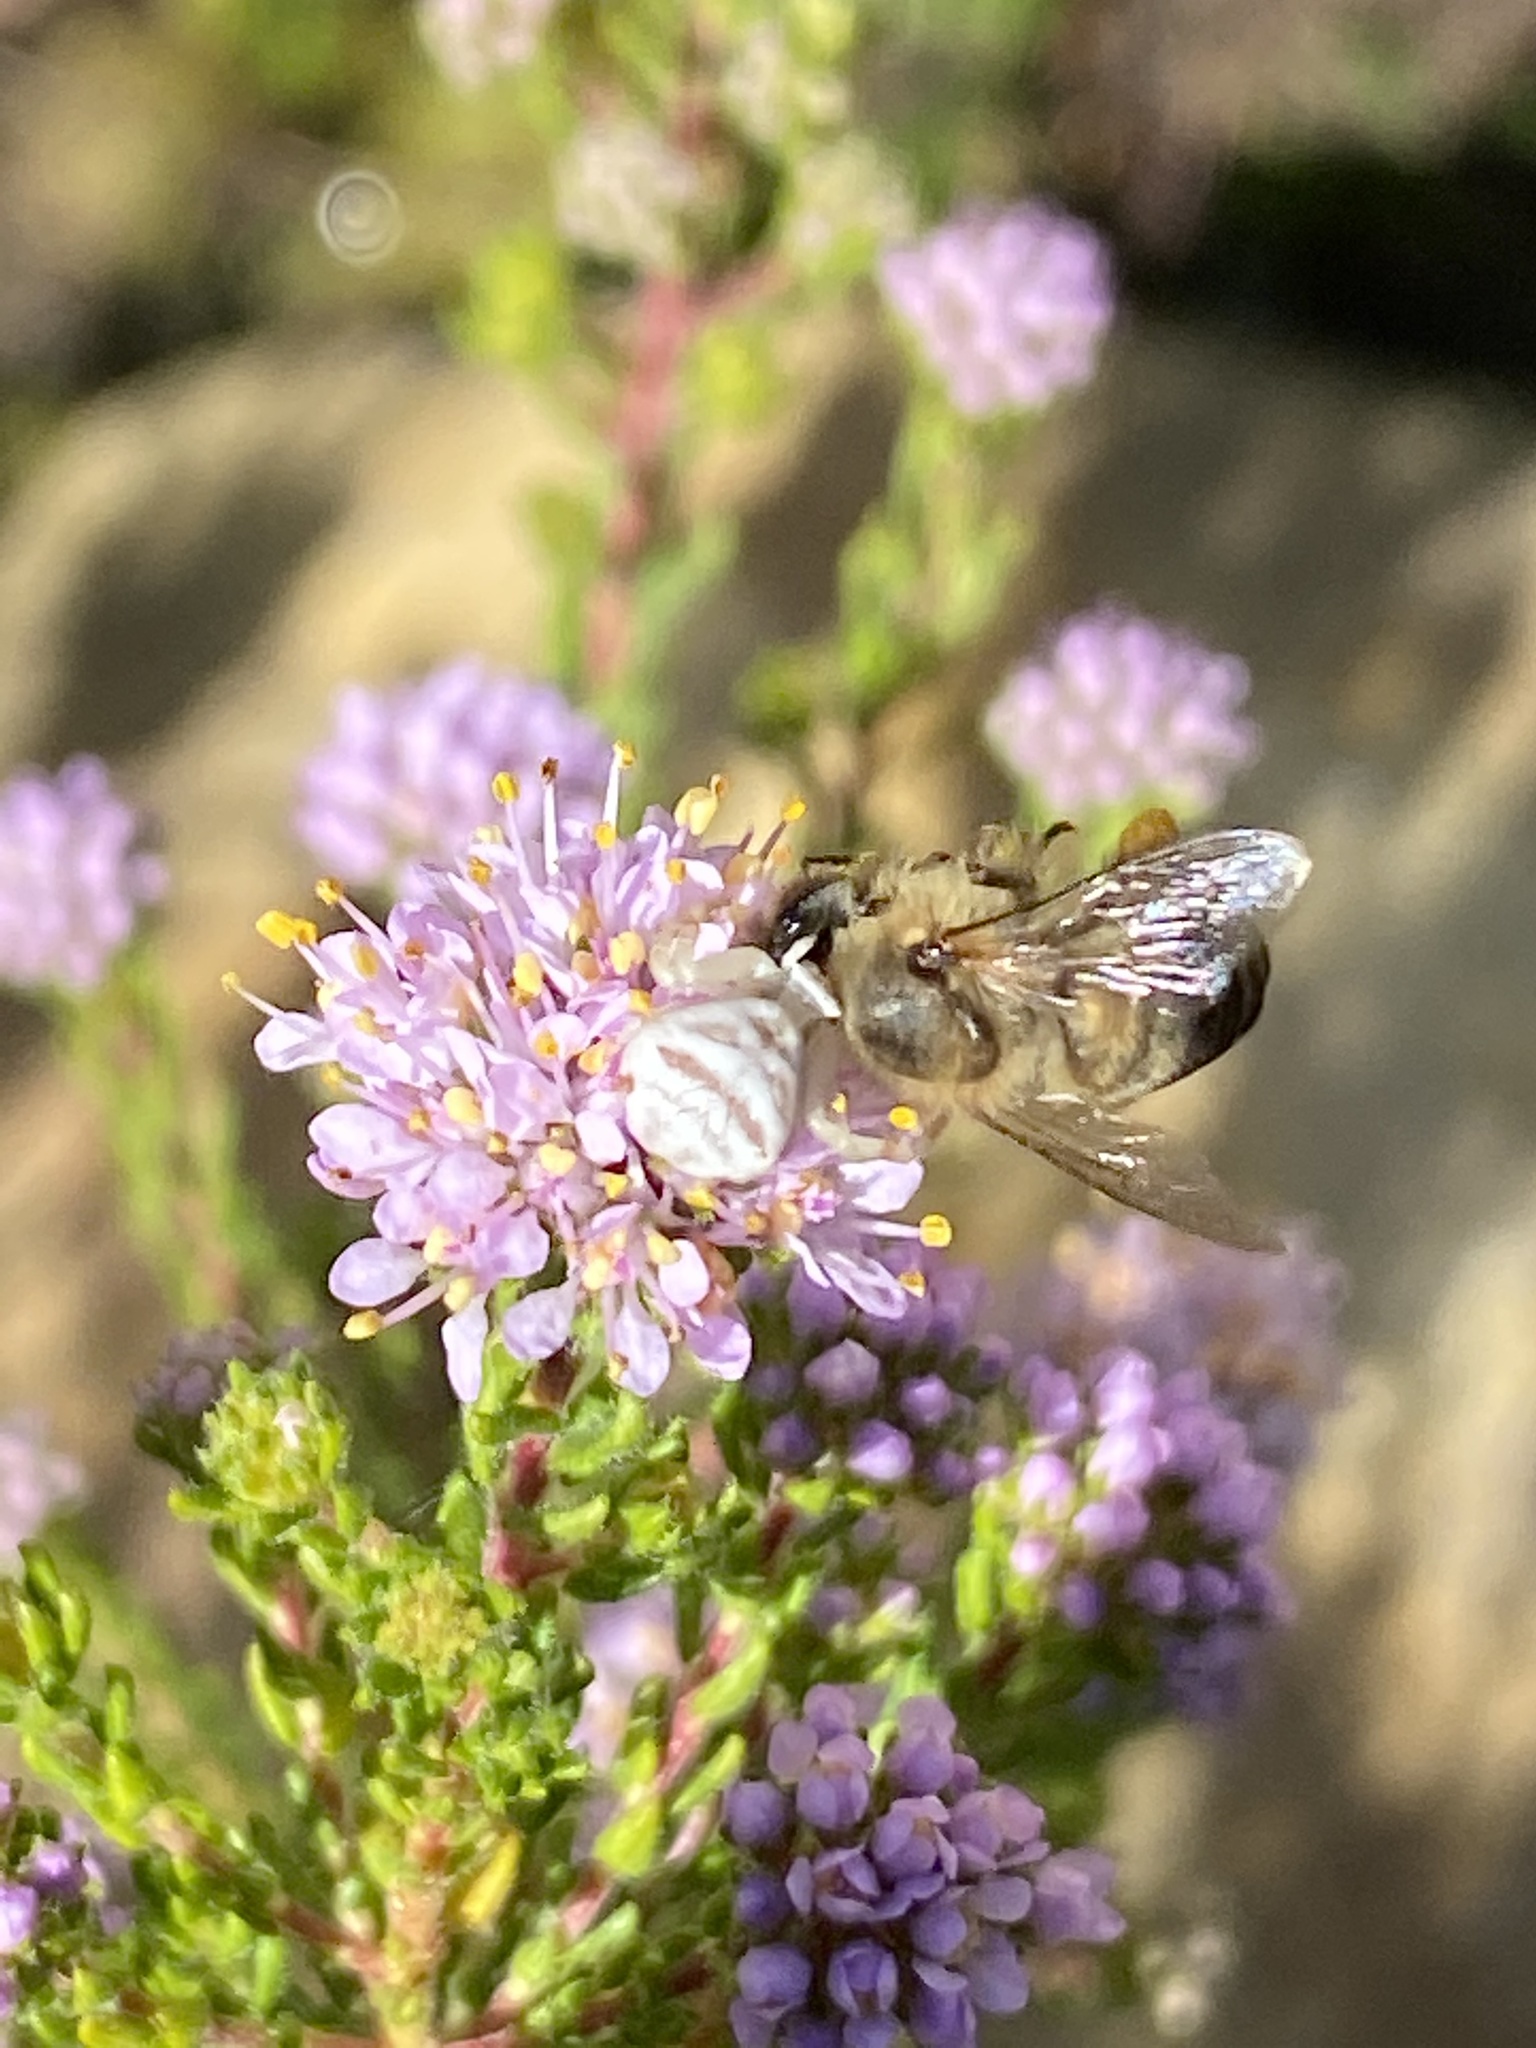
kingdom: Animalia
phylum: Arthropoda
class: Arachnida
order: Araneae
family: Thomisidae
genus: Thomisus
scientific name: Thomisus citrinellus
